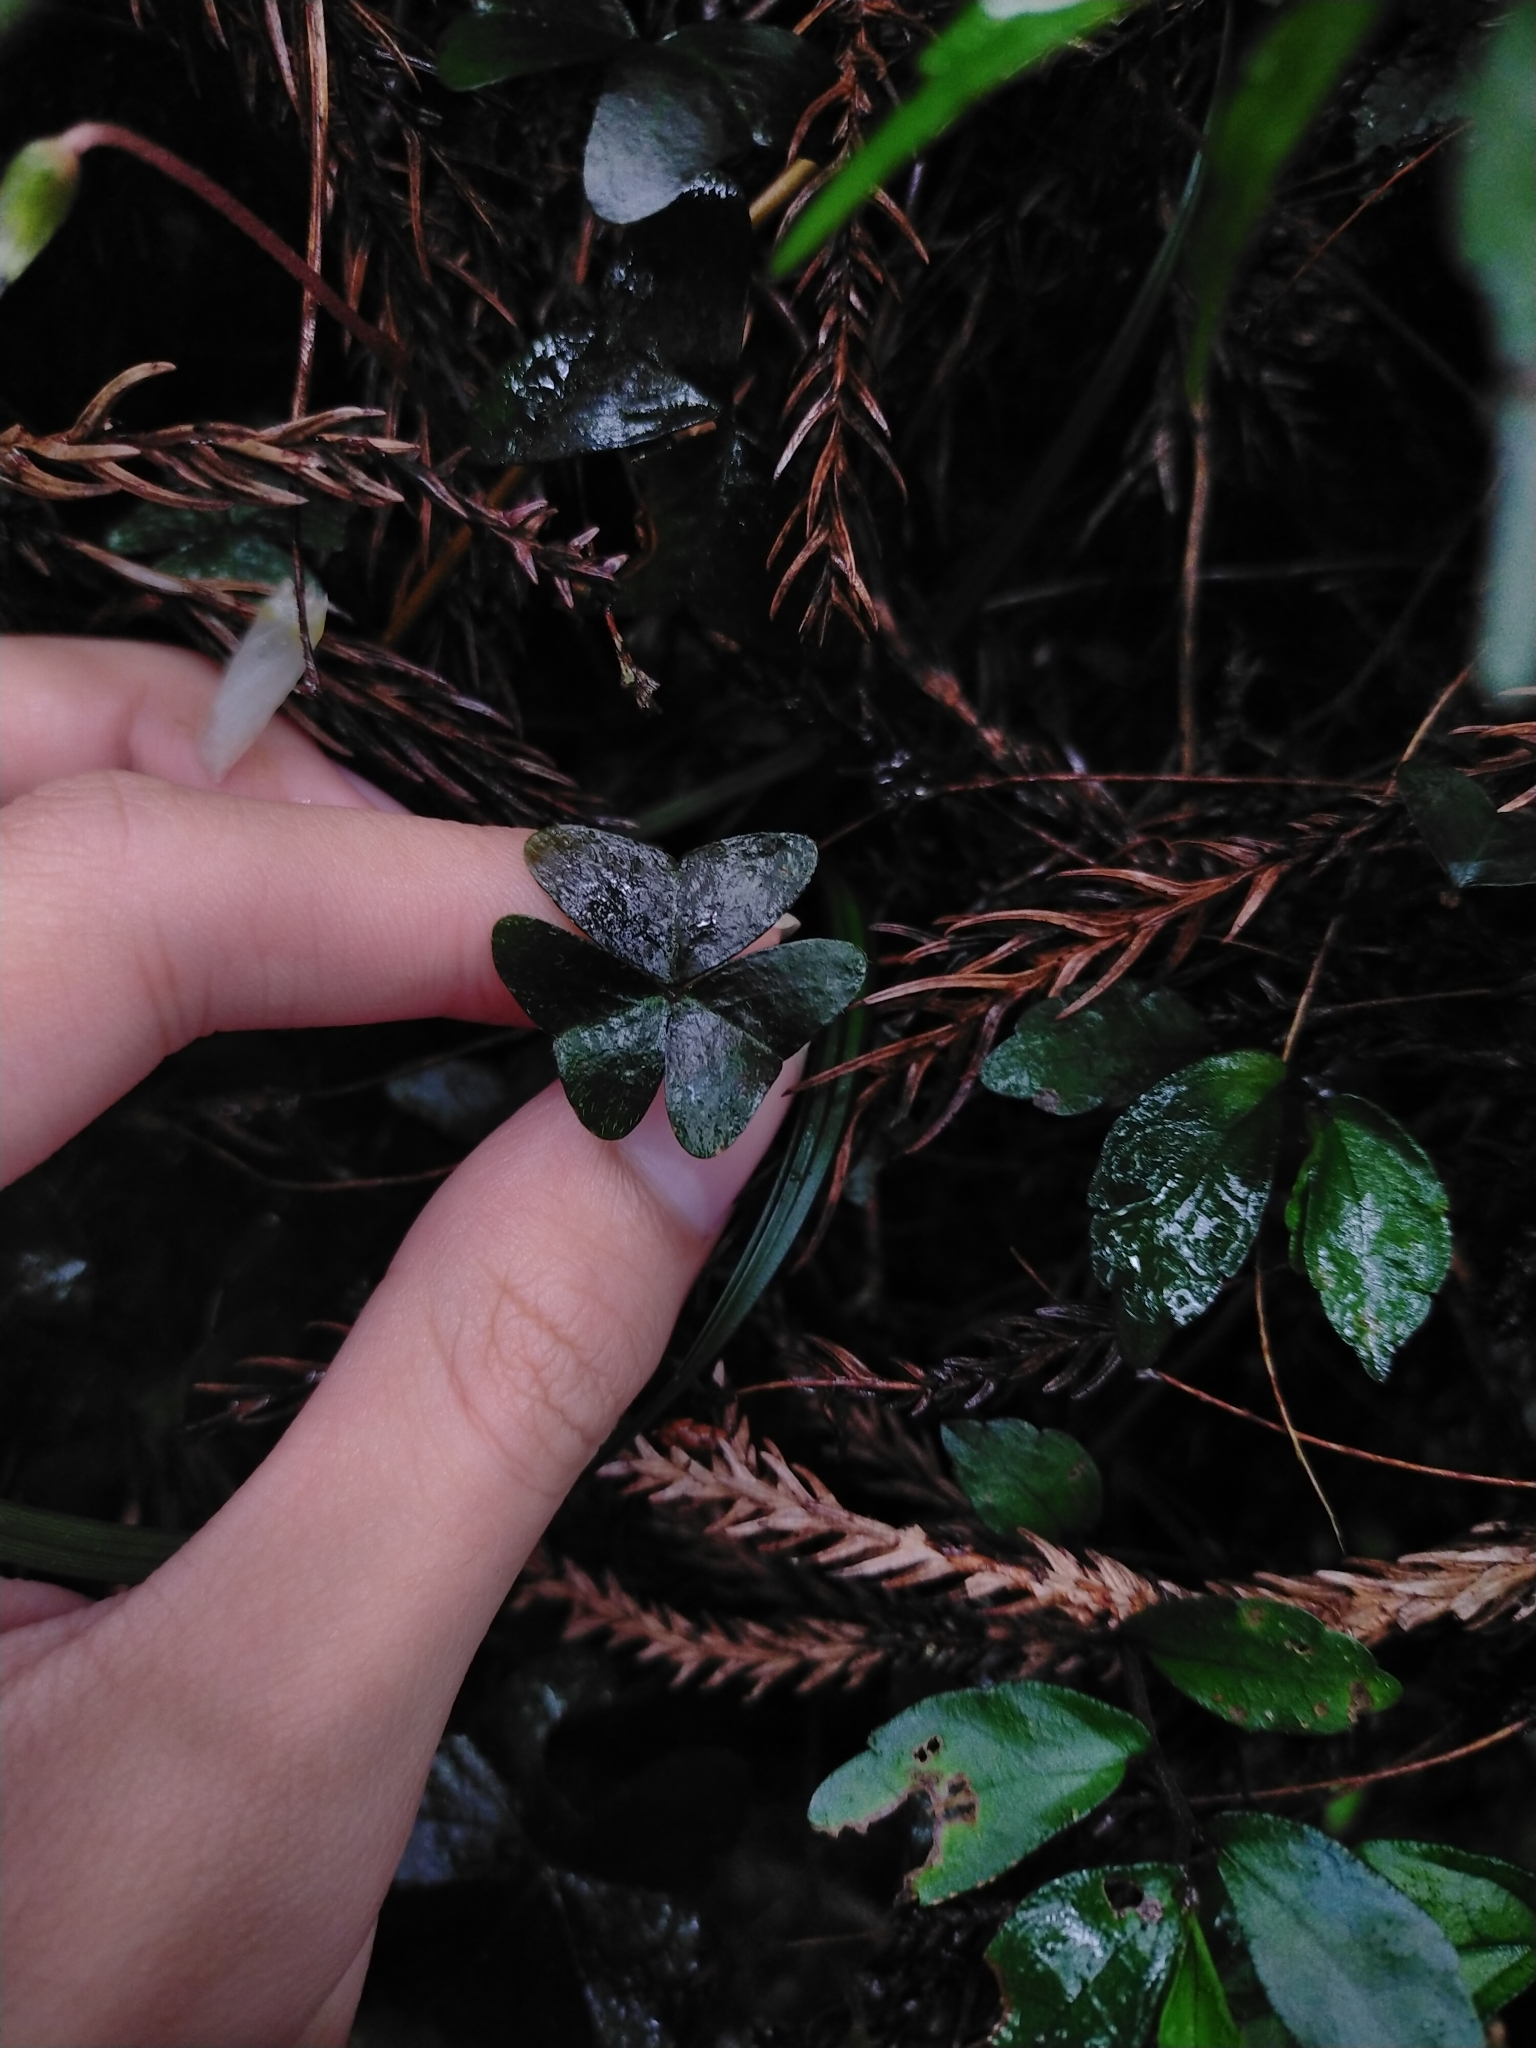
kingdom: Plantae
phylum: Tracheophyta
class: Magnoliopsida
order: Oxalidales
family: Oxalidaceae
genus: Oxalis
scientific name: Oxalis griffithii
